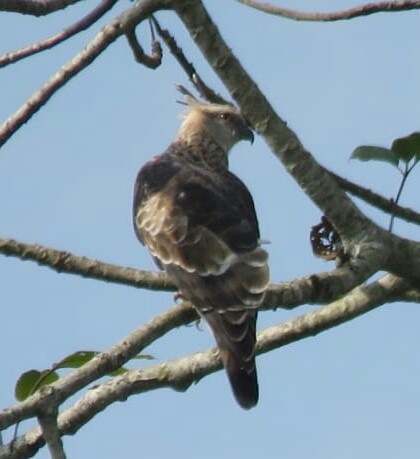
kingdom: Animalia
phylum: Chordata
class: Aves
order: Accipitriformes
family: Accipitridae
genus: Aviceda
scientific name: Aviceda jerdoni
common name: Jerdon's baza
